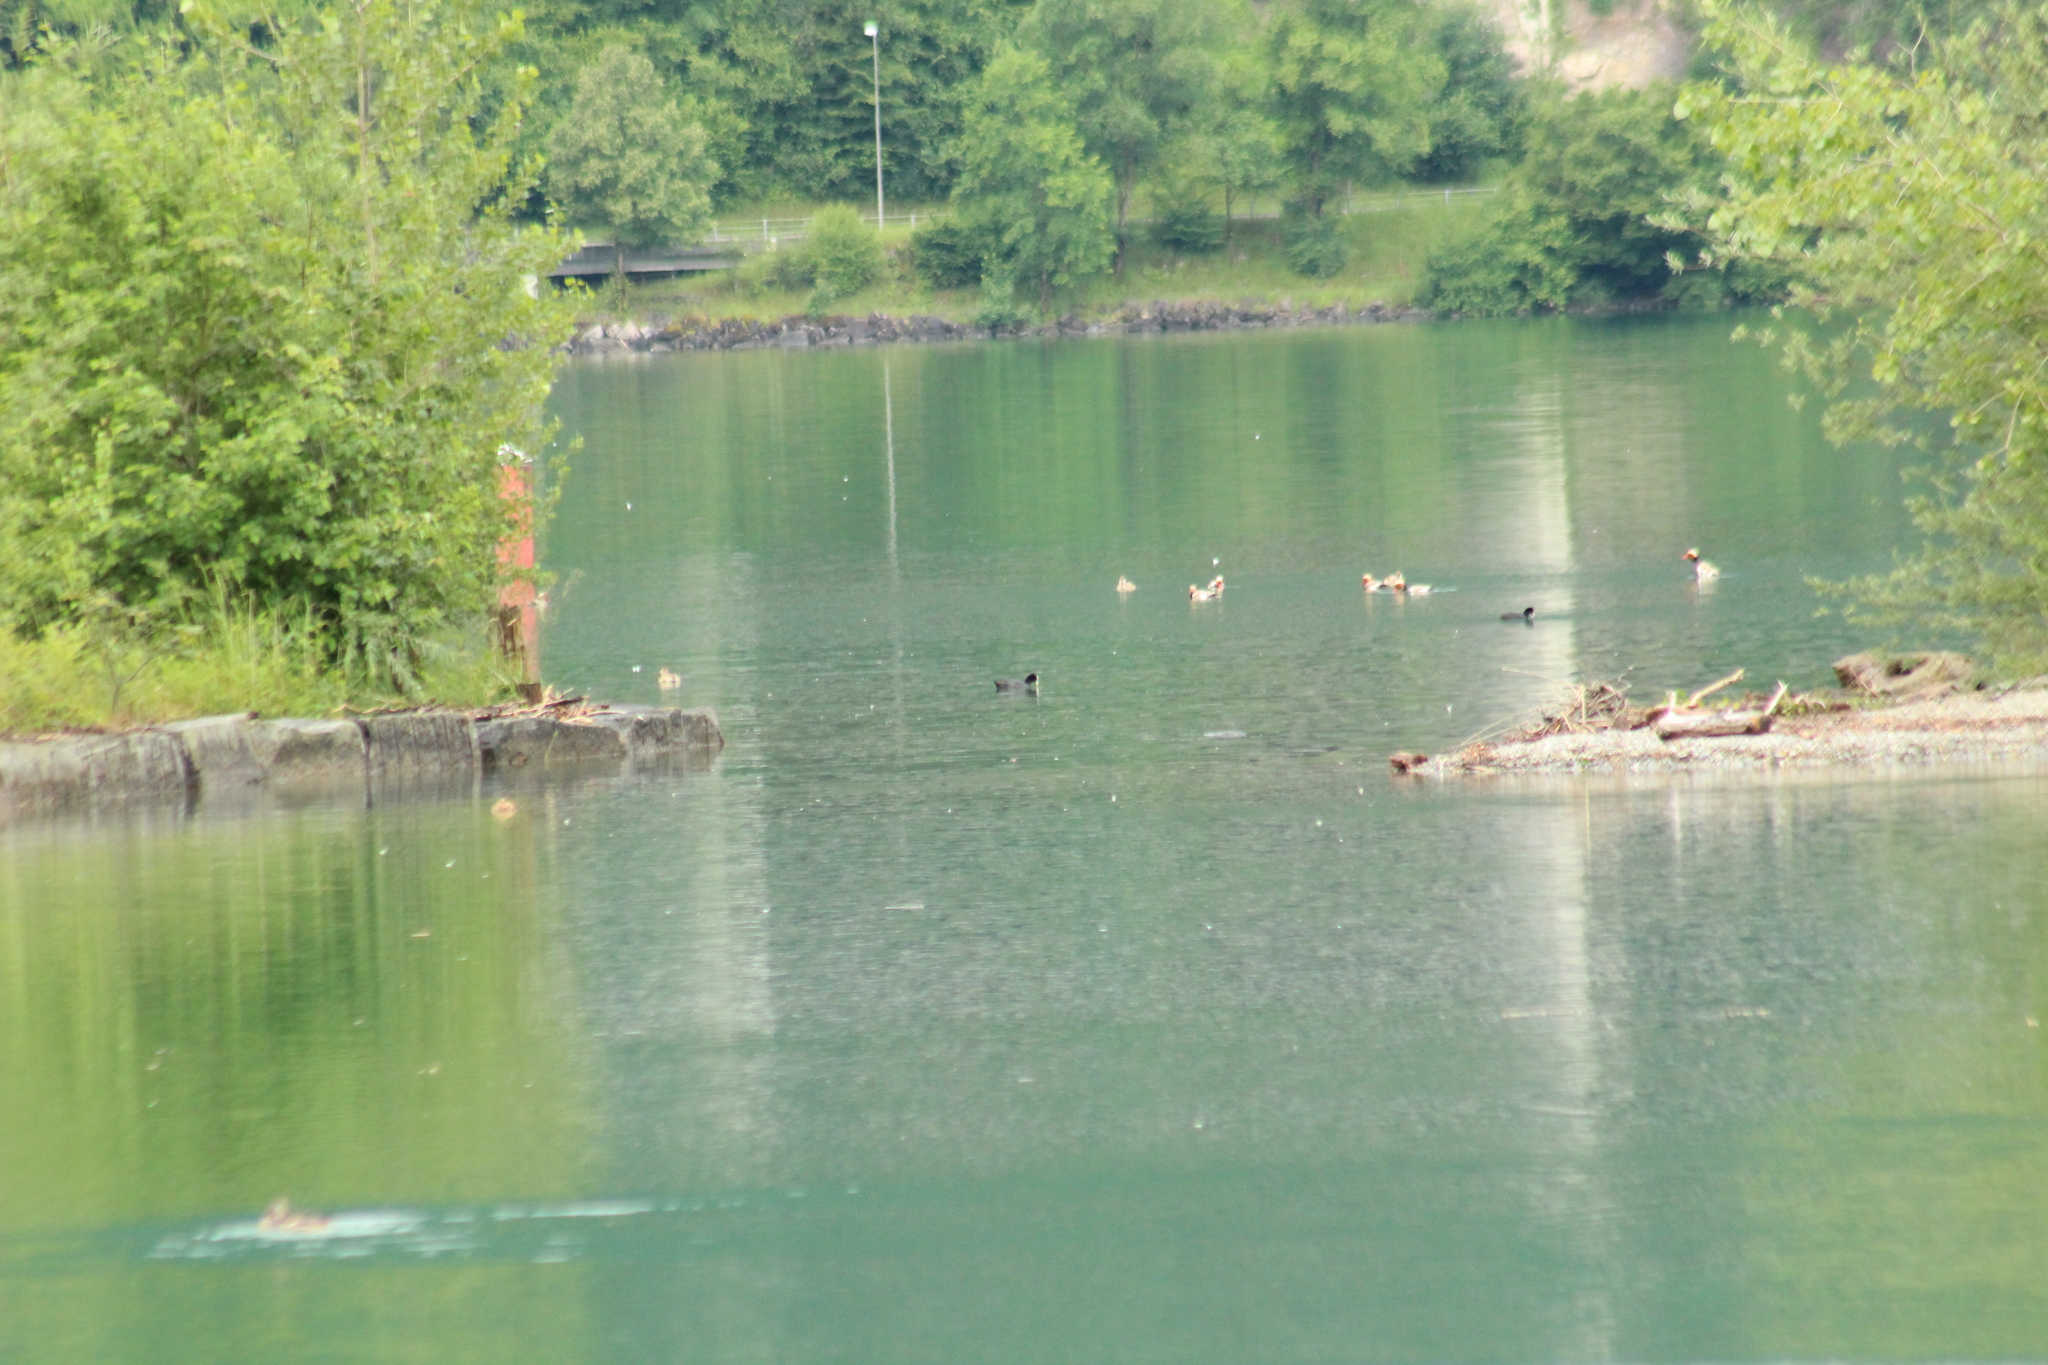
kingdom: Animalia
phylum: Chordata
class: Aves
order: Gruiformes
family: Rallidae
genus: Fulica
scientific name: Fulica atra
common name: Eurasian coot
